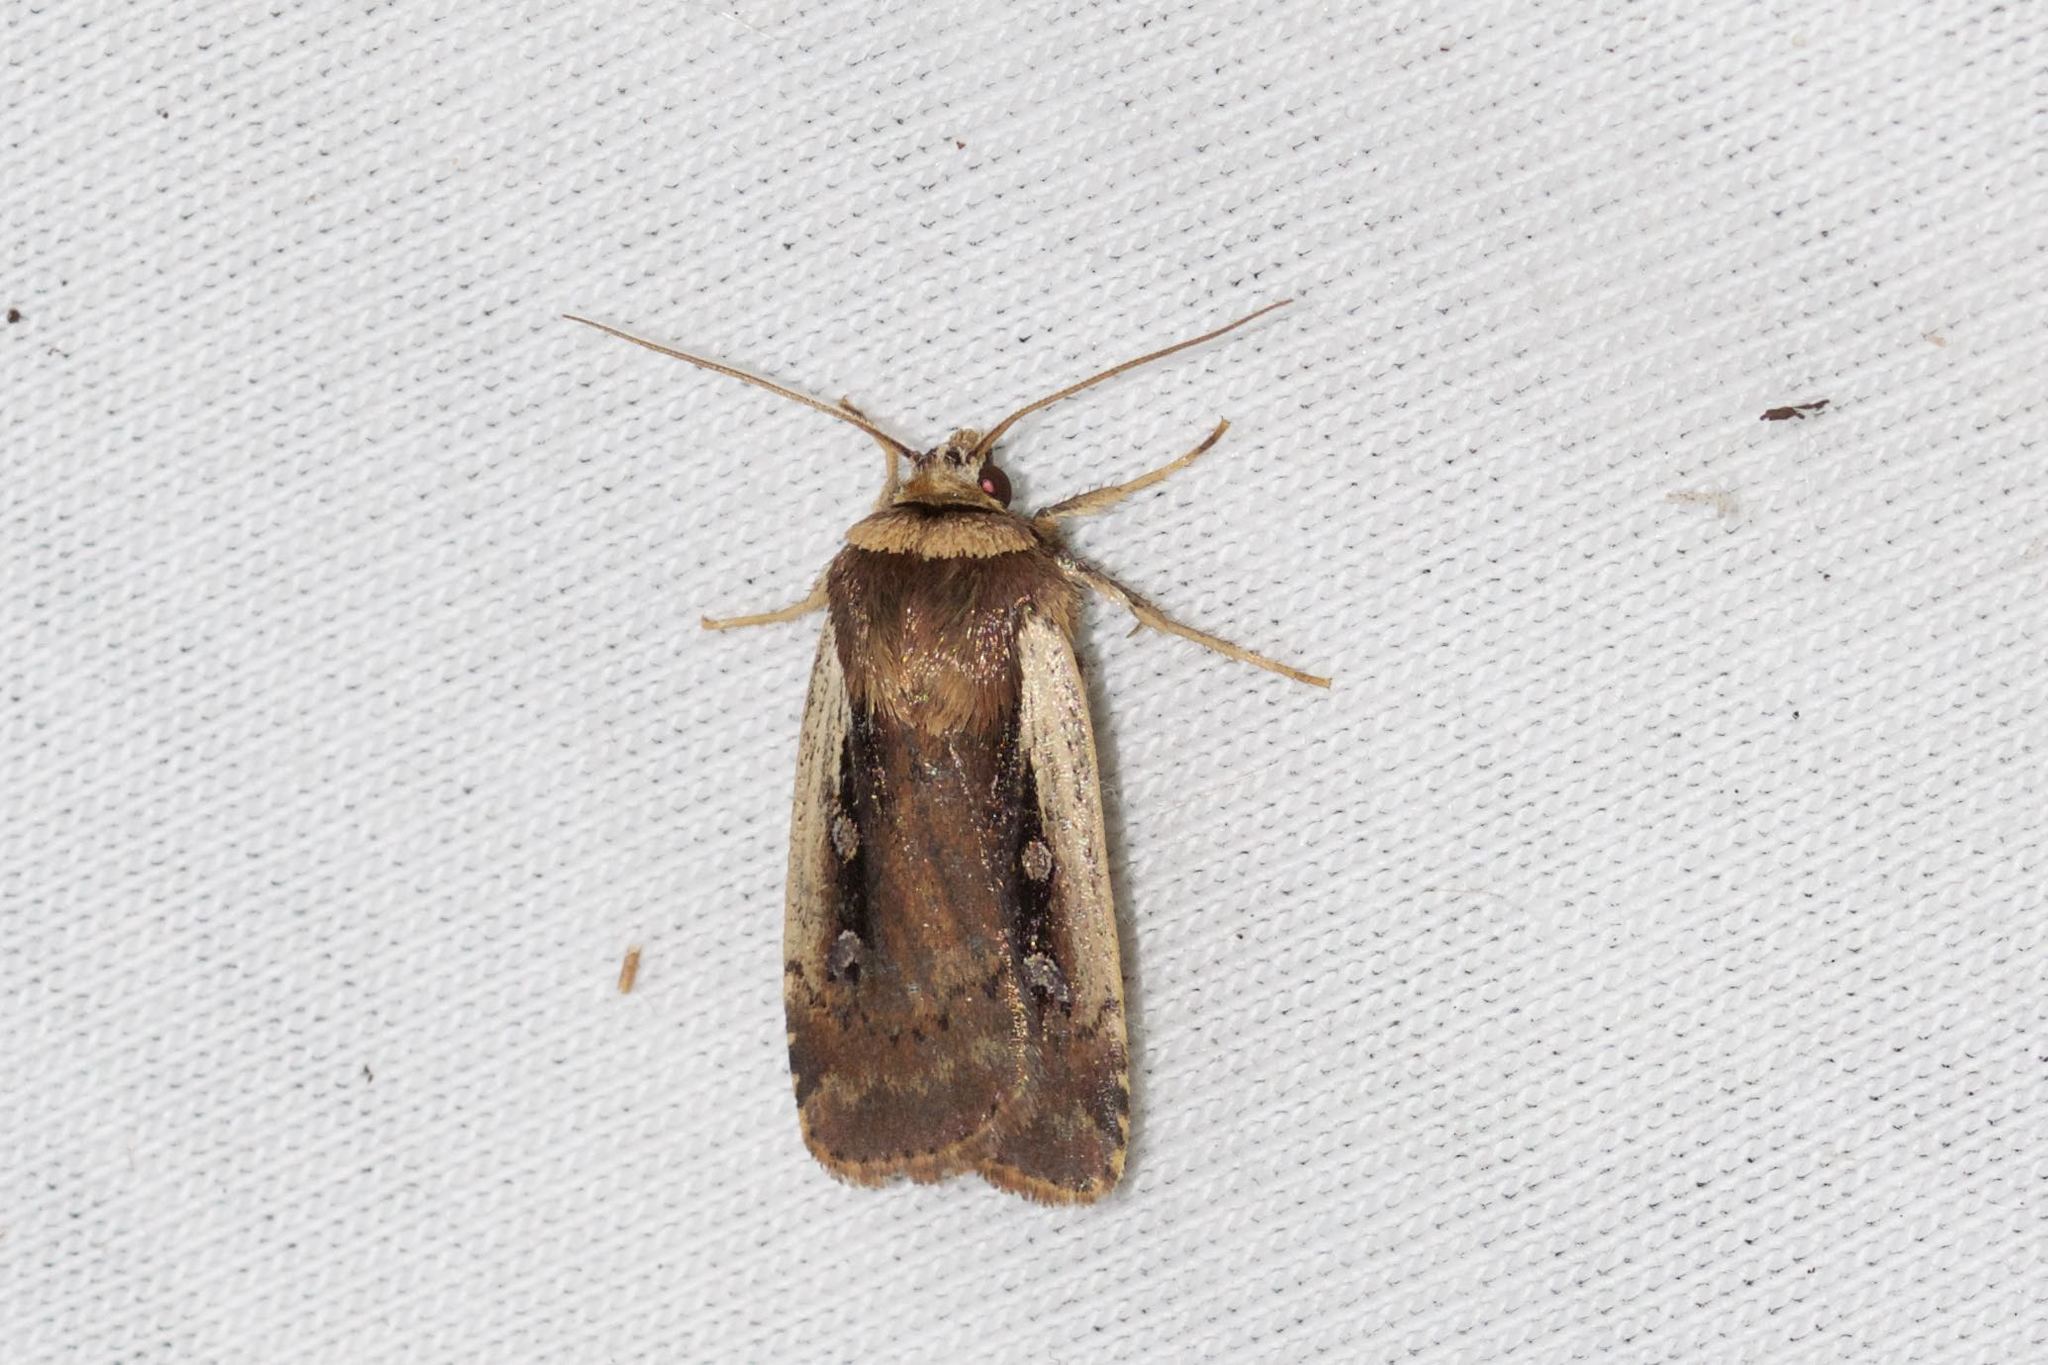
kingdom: Animalia
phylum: Arthropoda
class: Insecta
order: Lepidoptera
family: Noctuidae
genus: Ochropleura
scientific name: Ochropleura implecta
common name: Flame-shouldered dart
